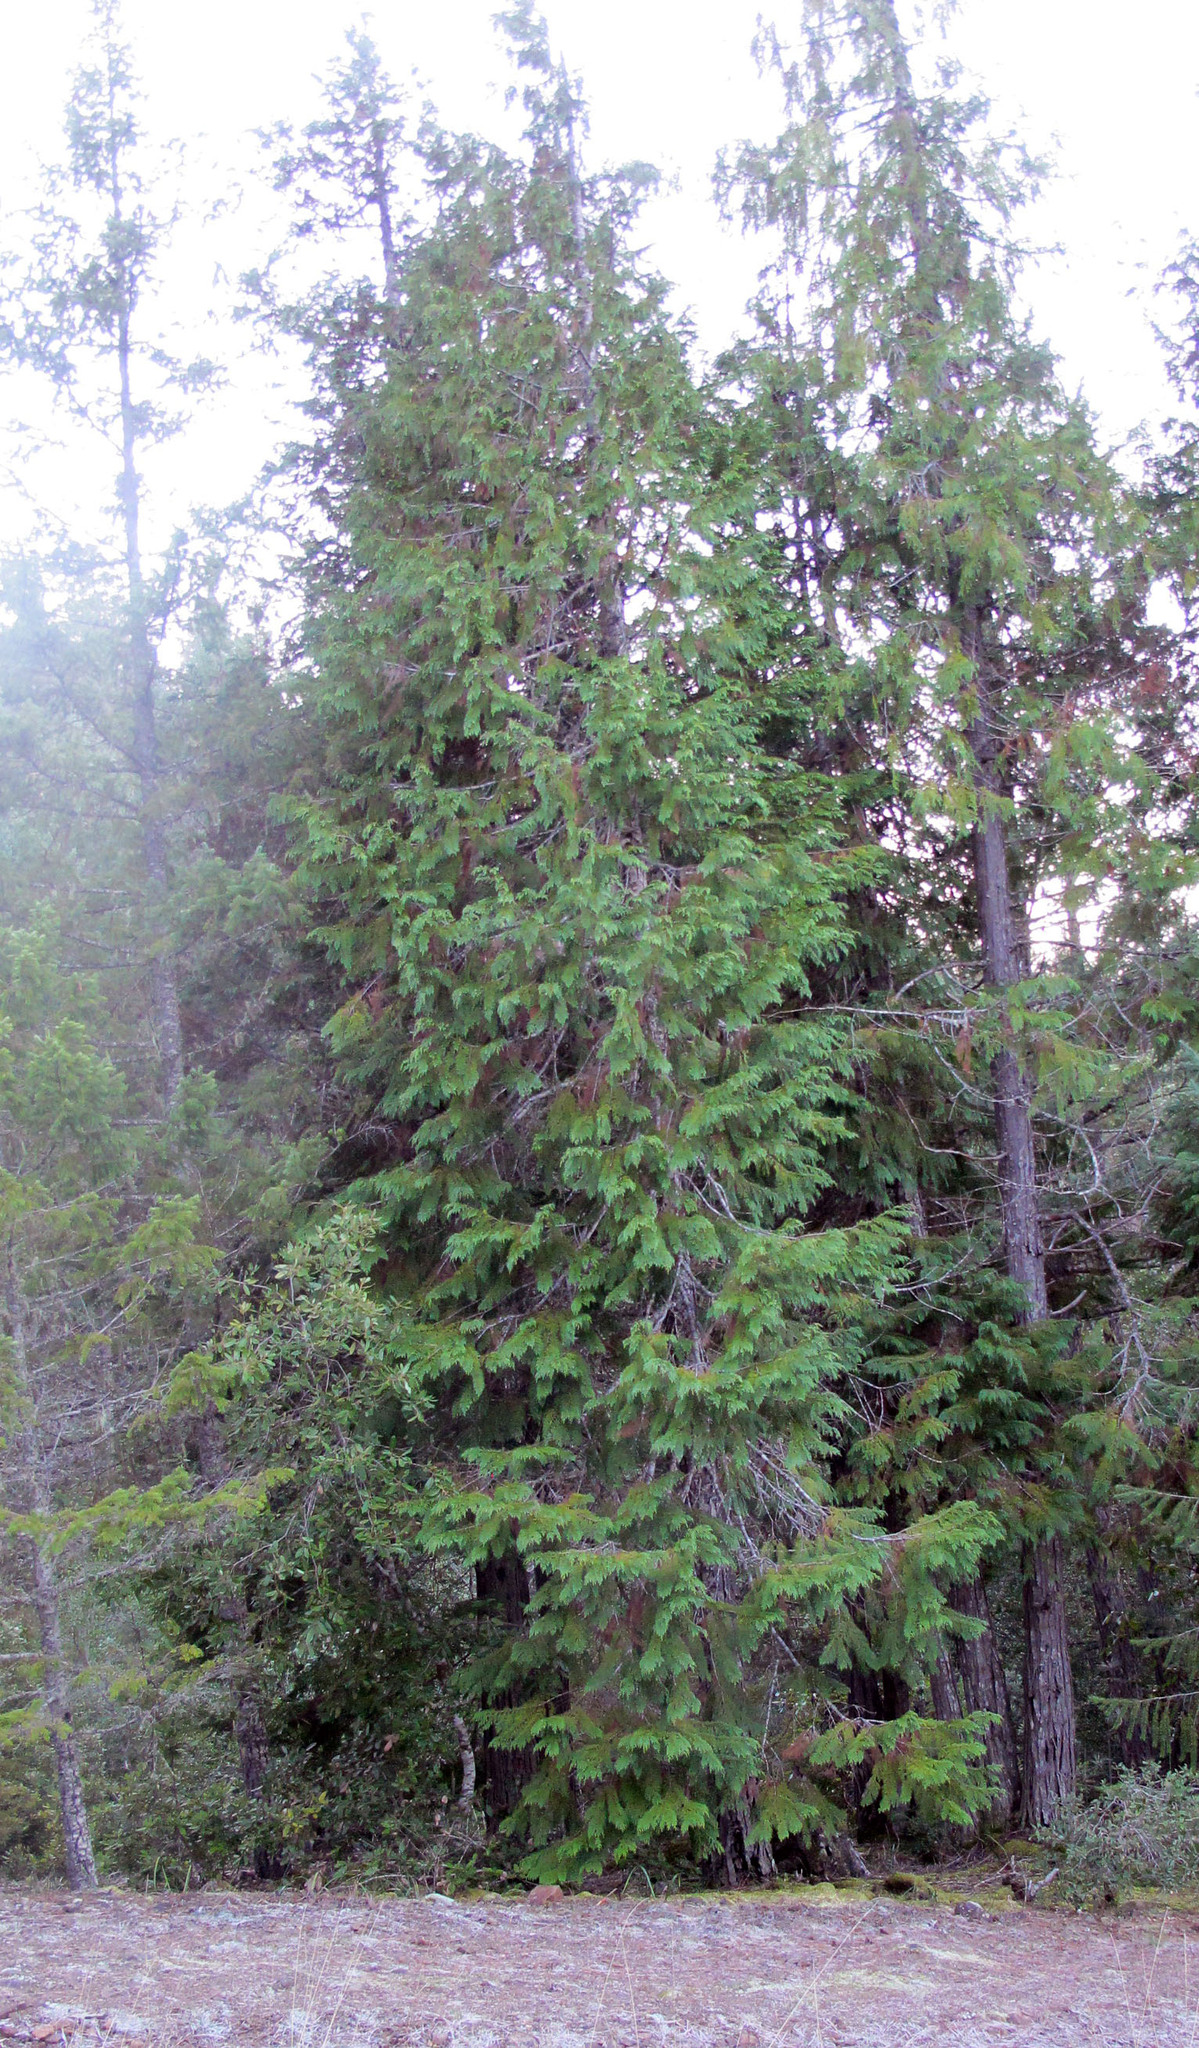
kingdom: Plantae
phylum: Tracheophyta
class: Pinopsida
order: Pinales
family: Cupressaceae
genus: Chamaecyparis
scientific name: Chamaecyparis lawsoniana
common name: Lawson's cypress
